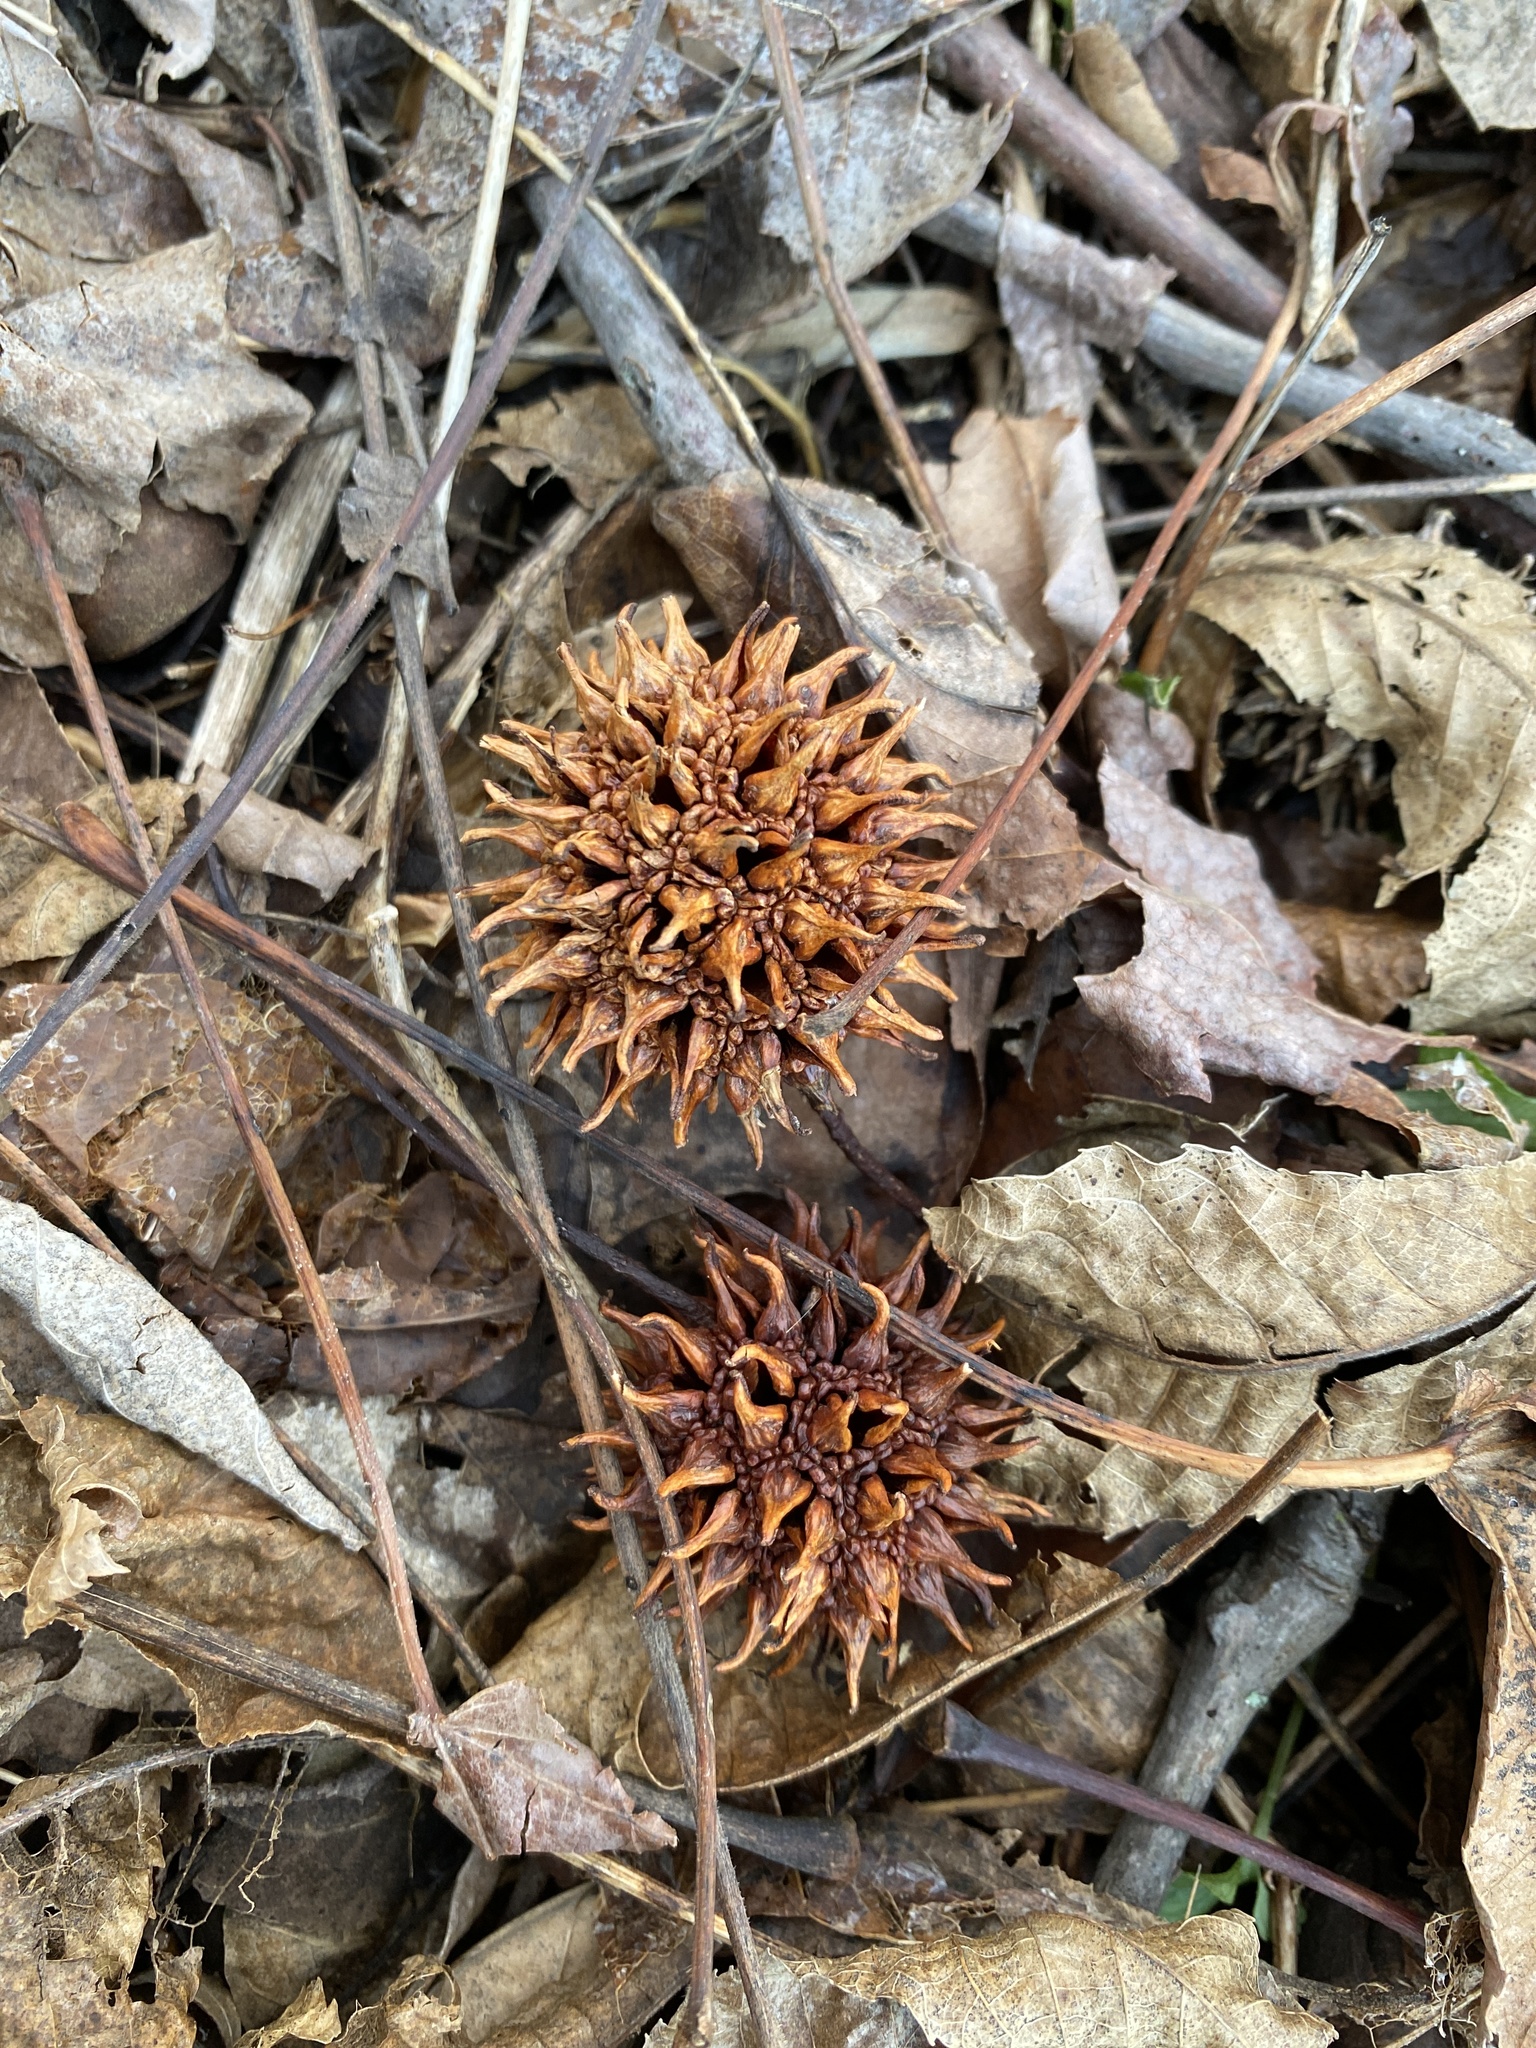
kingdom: Plantae
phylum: Tracheophyta
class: Magnoliopsida
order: Saxifragales
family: Altingiaceae
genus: Liquidambar
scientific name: Liquidambar styraciflua
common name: Sweet gum
